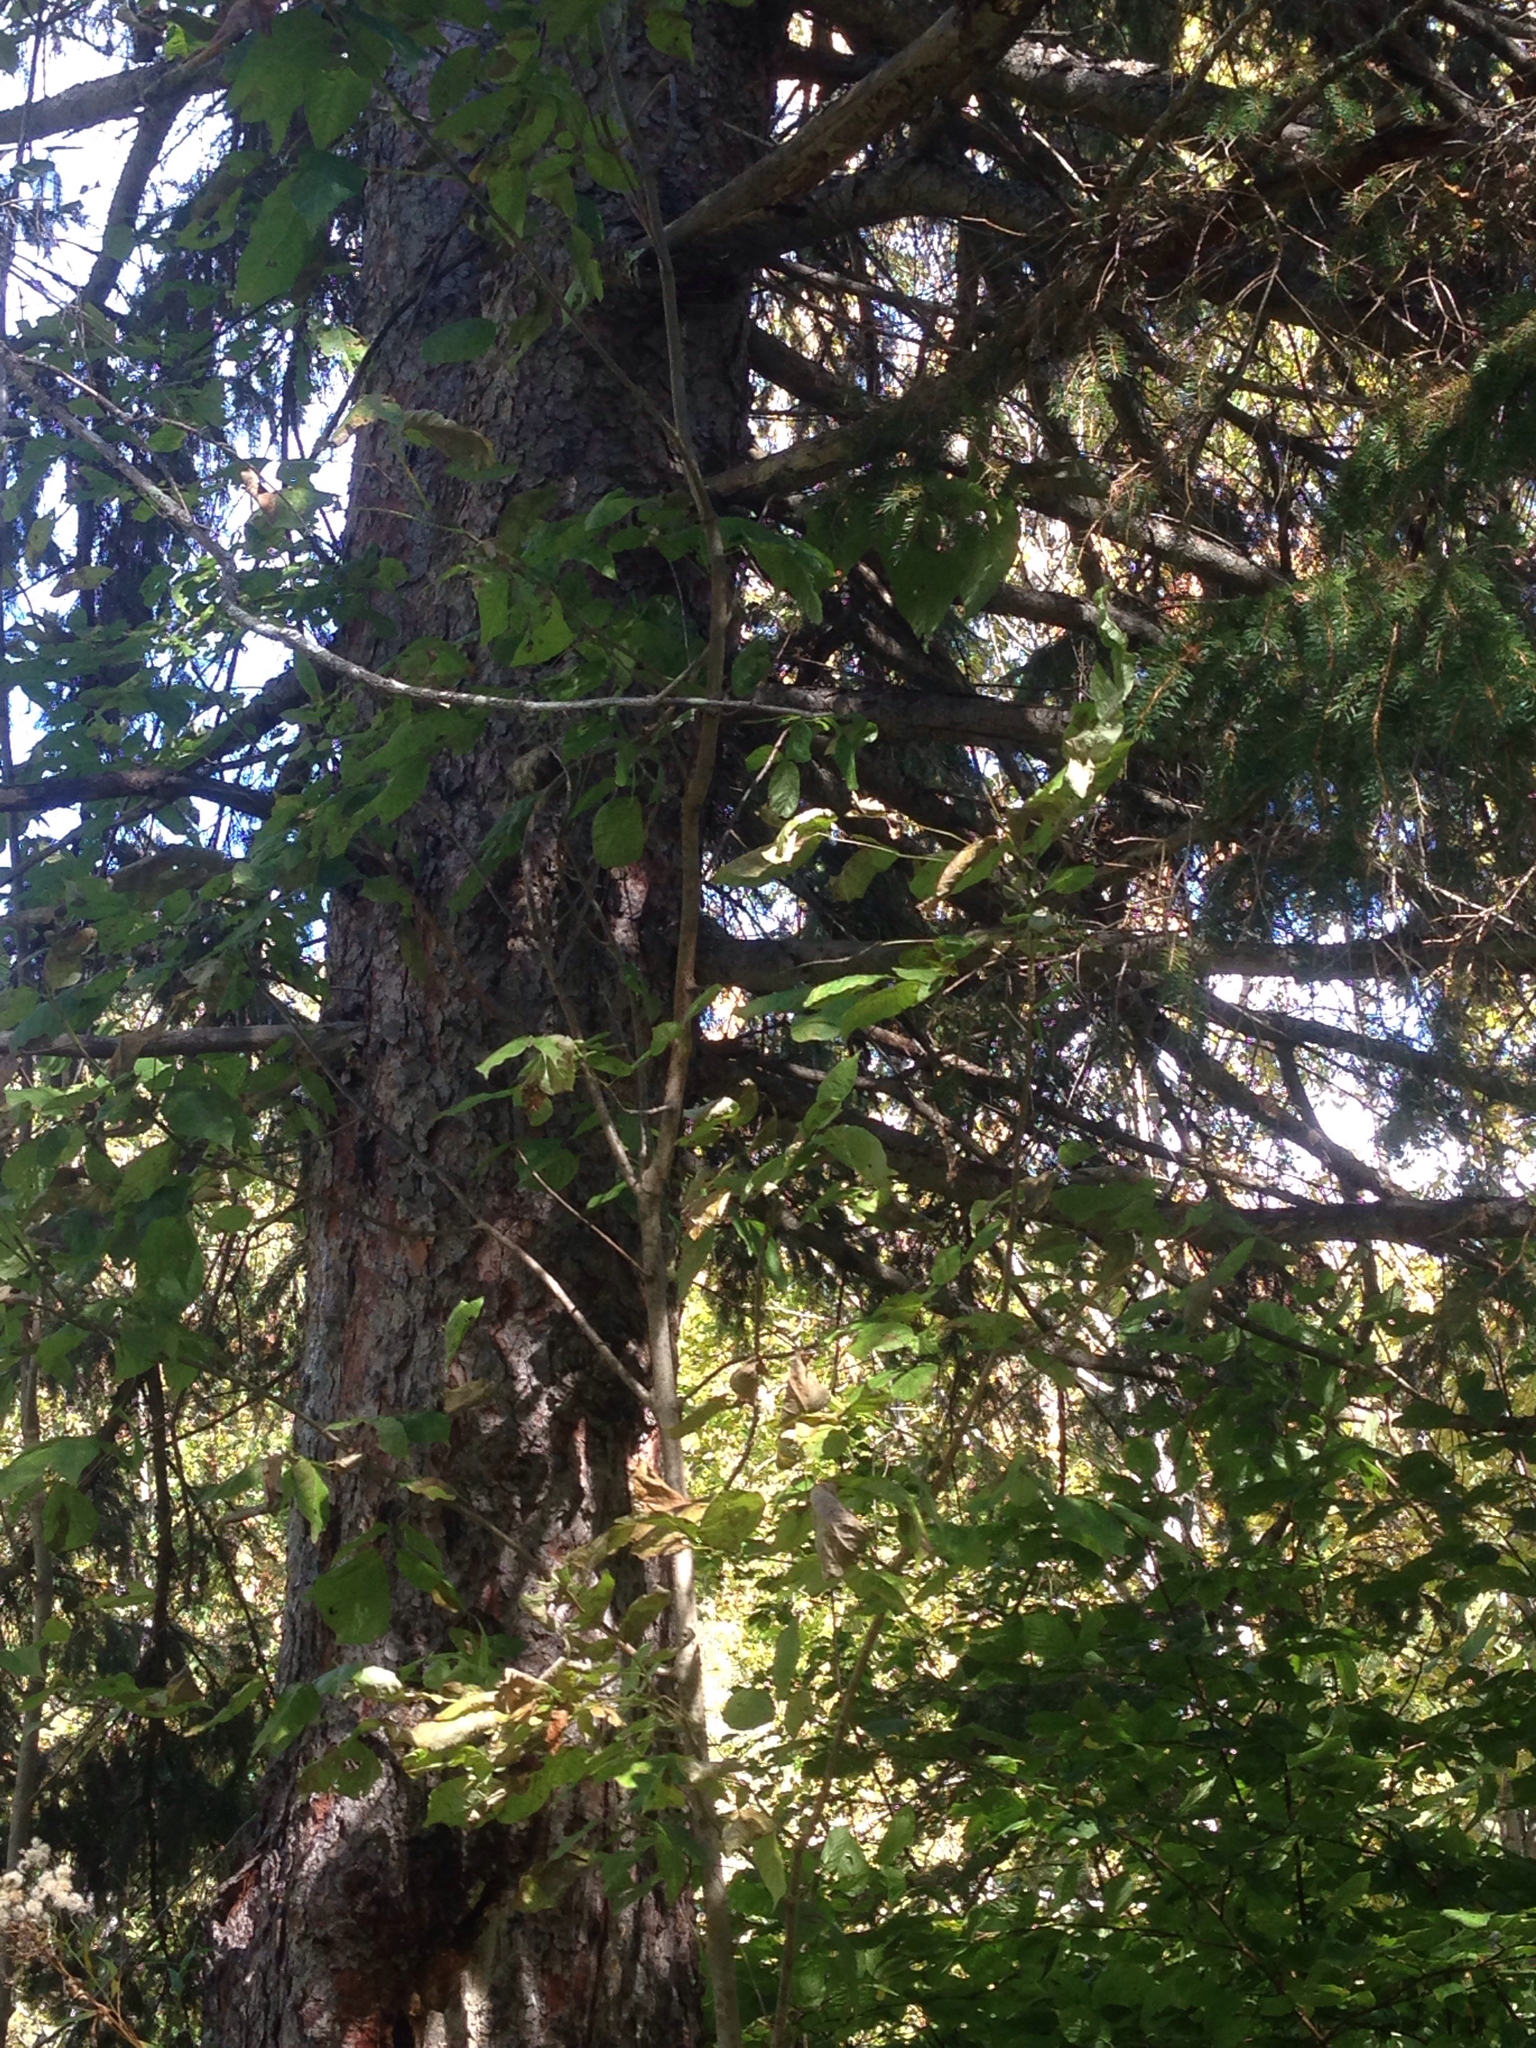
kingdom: Plantae
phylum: Tracheophyta
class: Pinopsida
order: Pinales
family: Pinaceae
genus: Picea
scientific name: Picea abies
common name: Norway spruce
